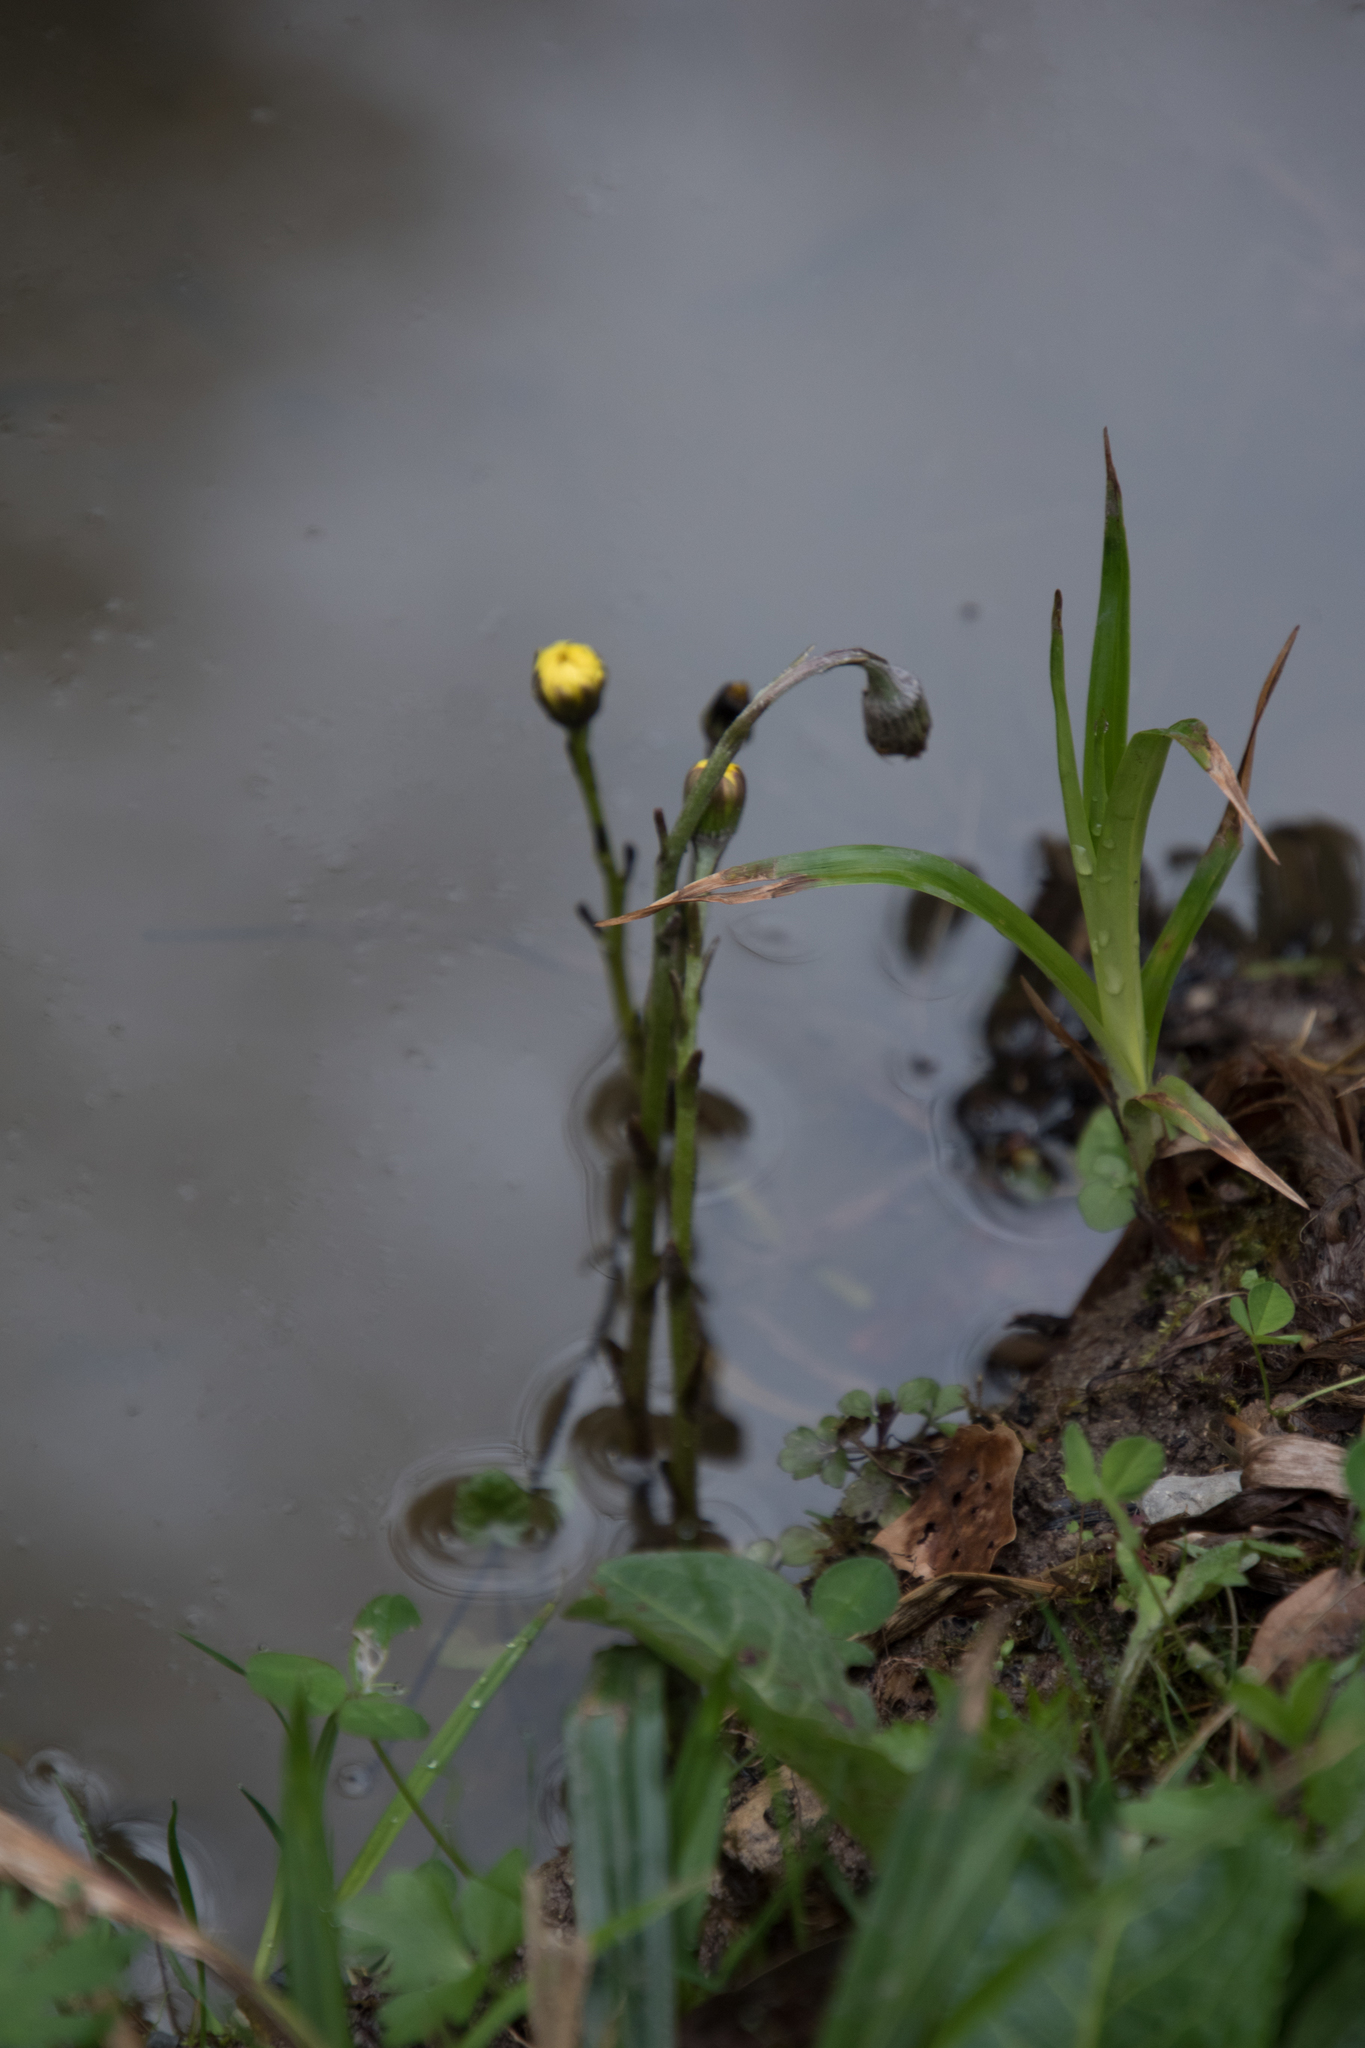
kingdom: Plantae
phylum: Tracheophyta
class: Magnoliopsida
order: Asterales
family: Asteraceae
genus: Tussilago
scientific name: Tussilago farfara
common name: Coltsfoot
